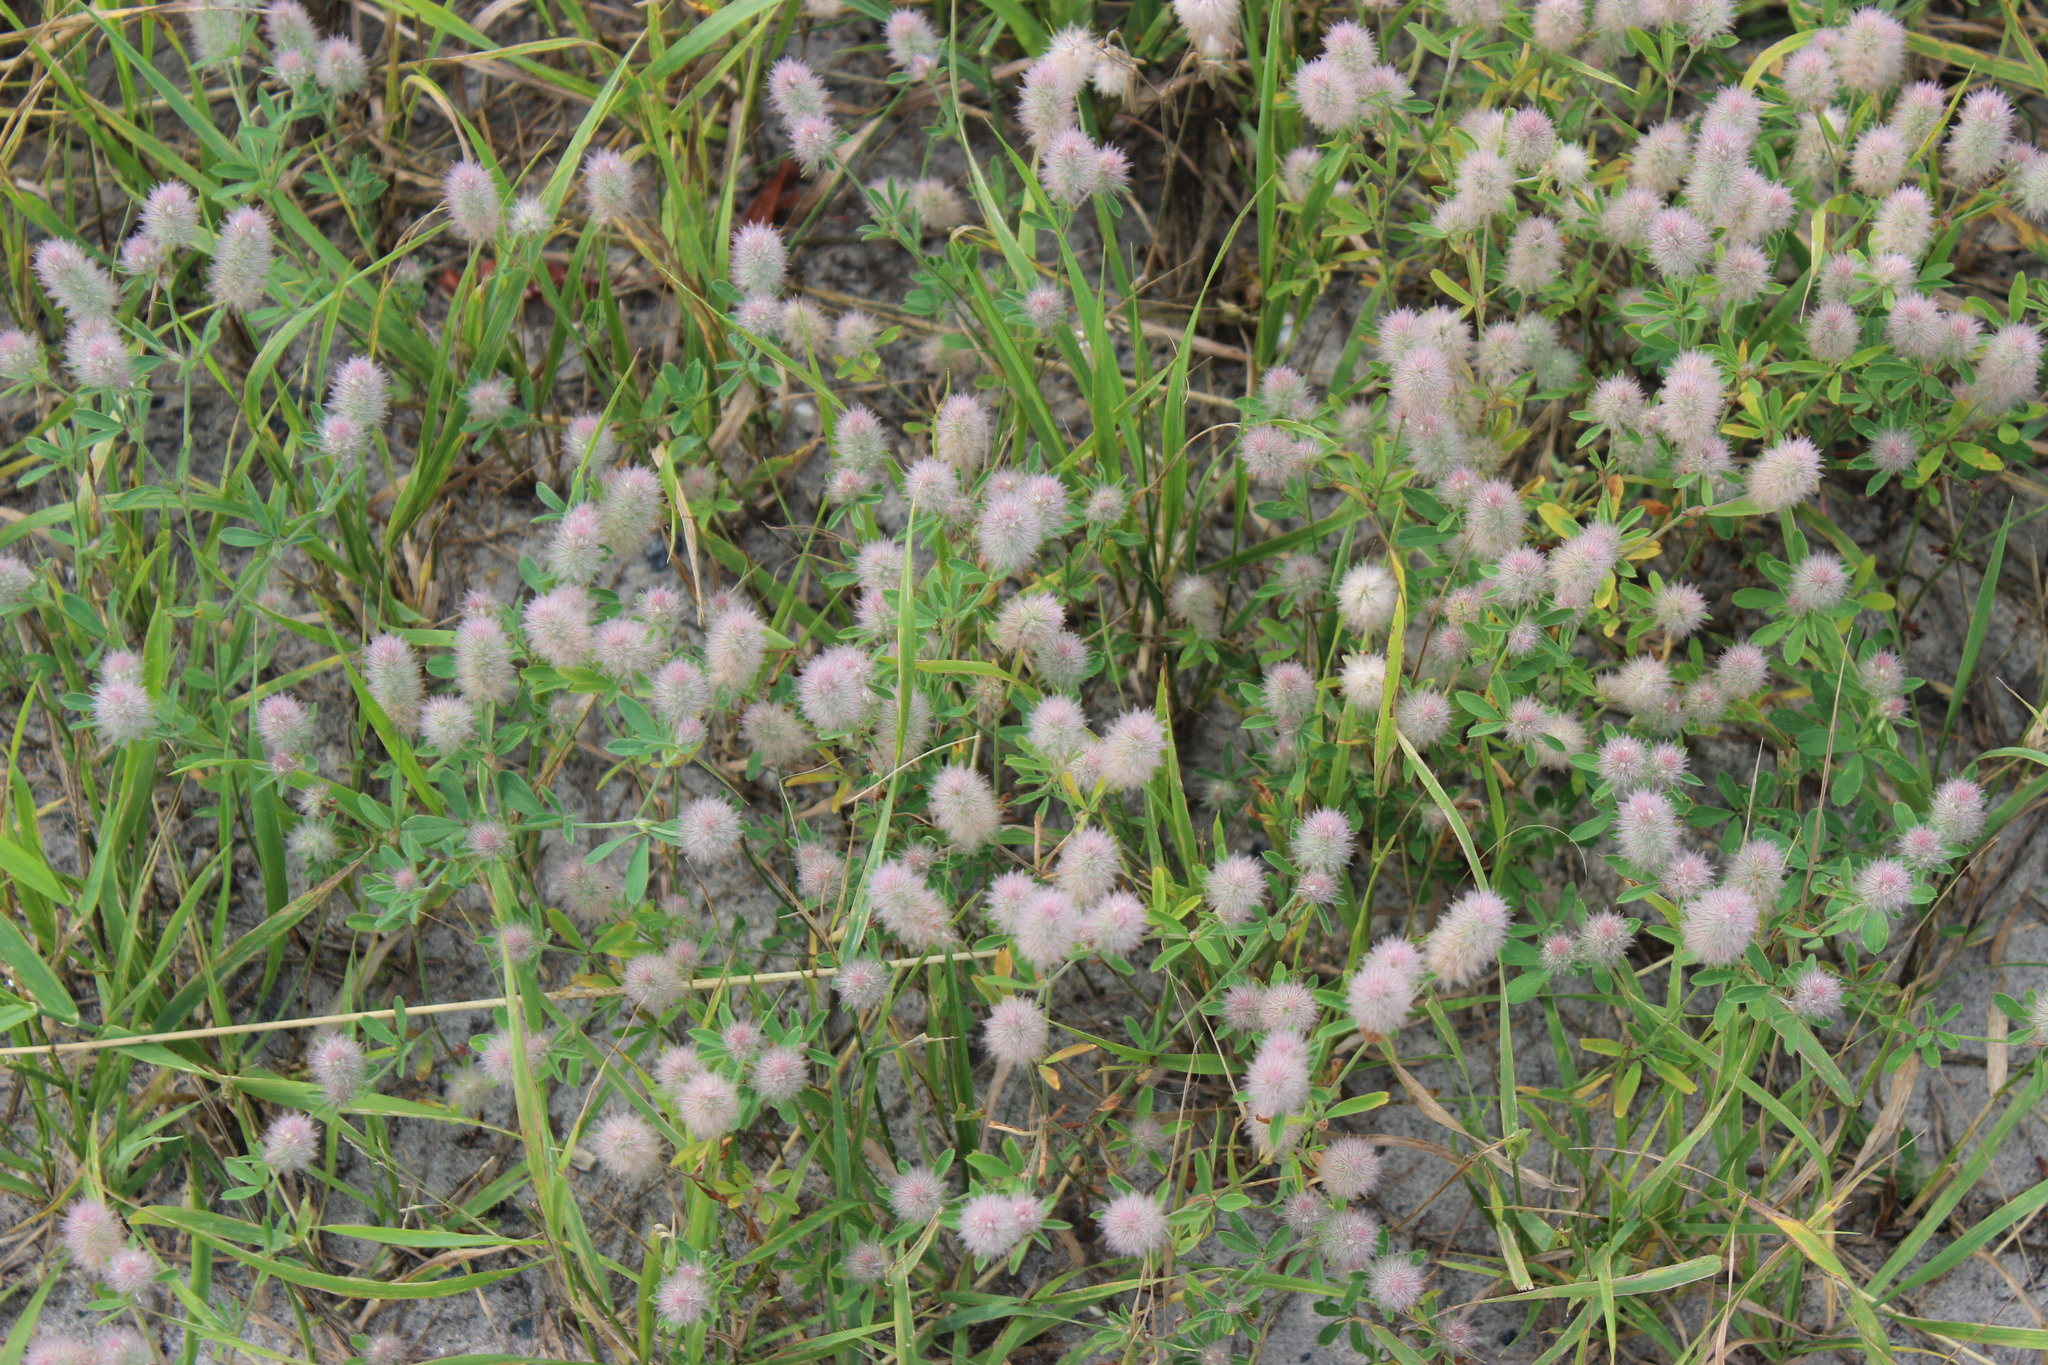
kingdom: Plantae
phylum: Tracheophyta
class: Magnoliopsida
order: Fabales
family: Fabaceae
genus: Trifolium
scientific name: Trifolium arvense
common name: Hare's-foot clover
